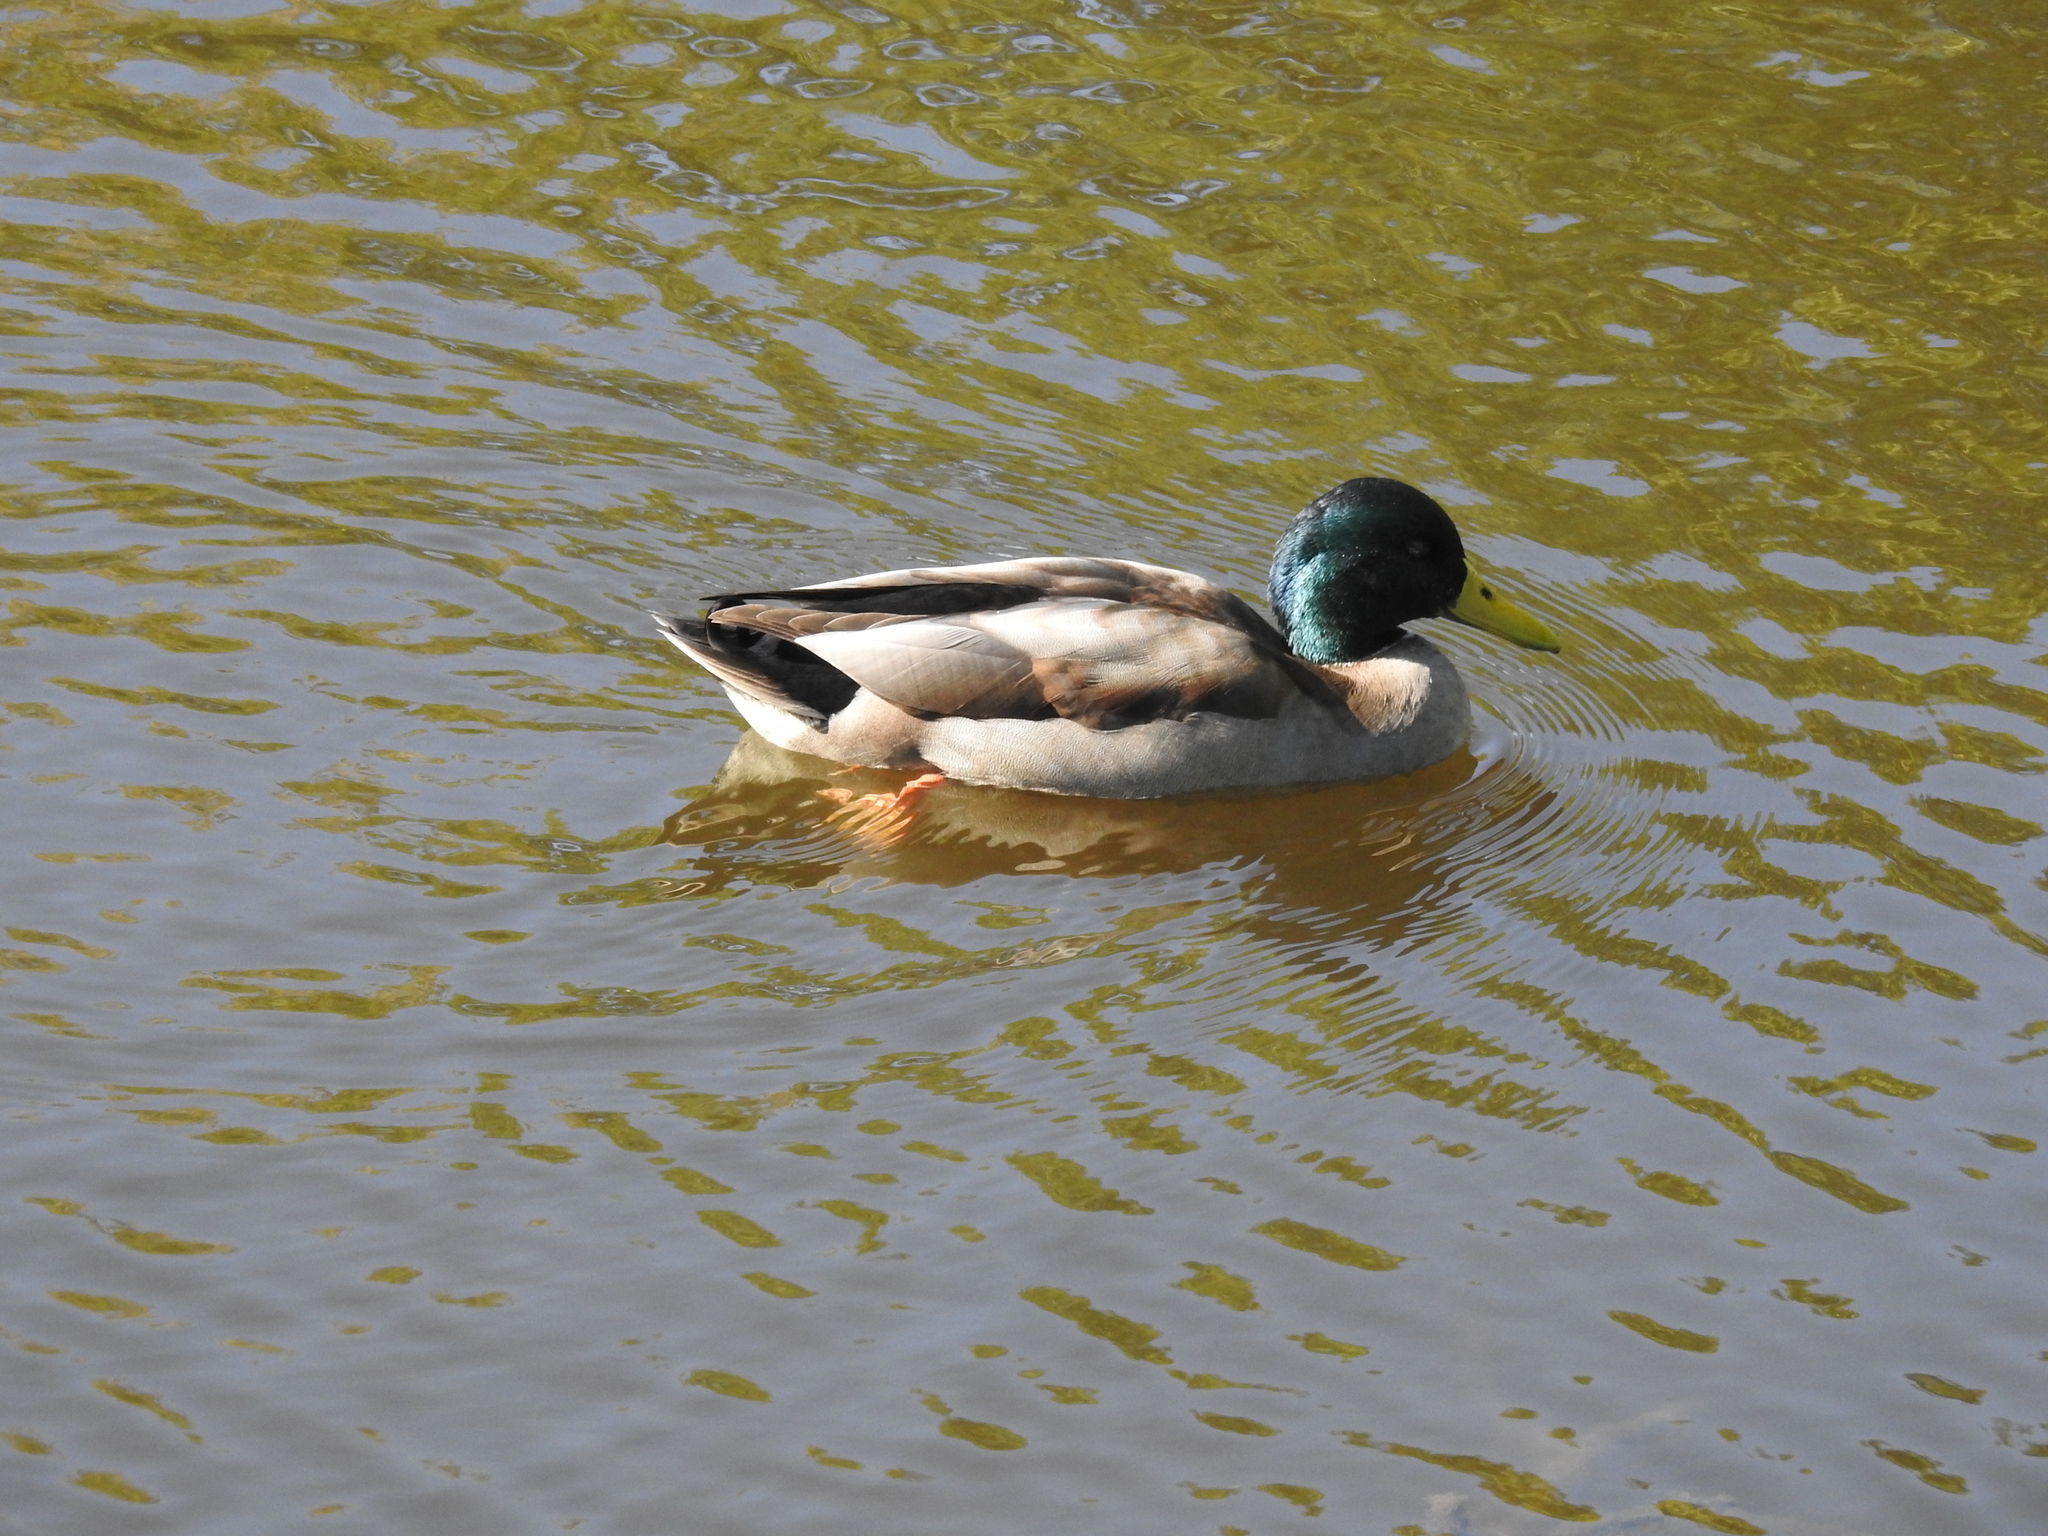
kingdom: Animalia
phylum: Chordata
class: Aves
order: Anseriformes
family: Anatidae
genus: Anas
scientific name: Anas platyrhynchos
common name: Mallard
